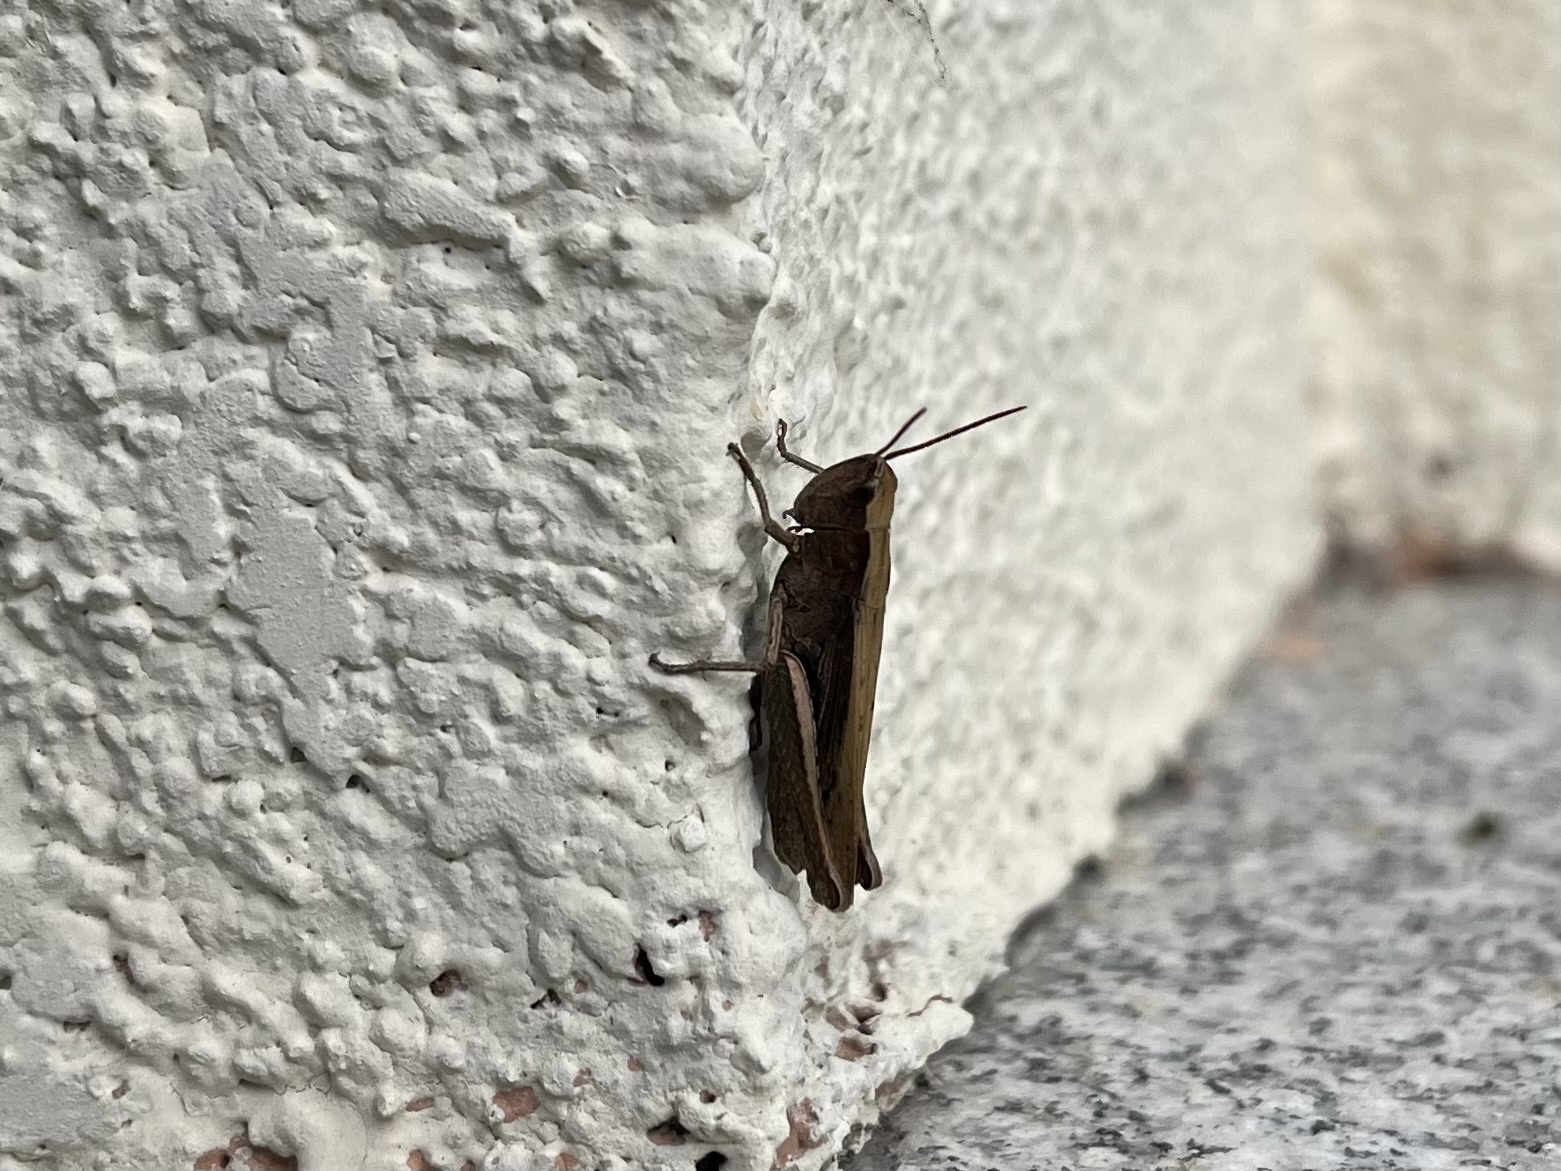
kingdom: Animalia
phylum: Arthropoda
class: Insecta
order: Orthoptera
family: Acrididae
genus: Chorthippus
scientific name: Chorthippus dorsatus
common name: Steppe grasshopper
